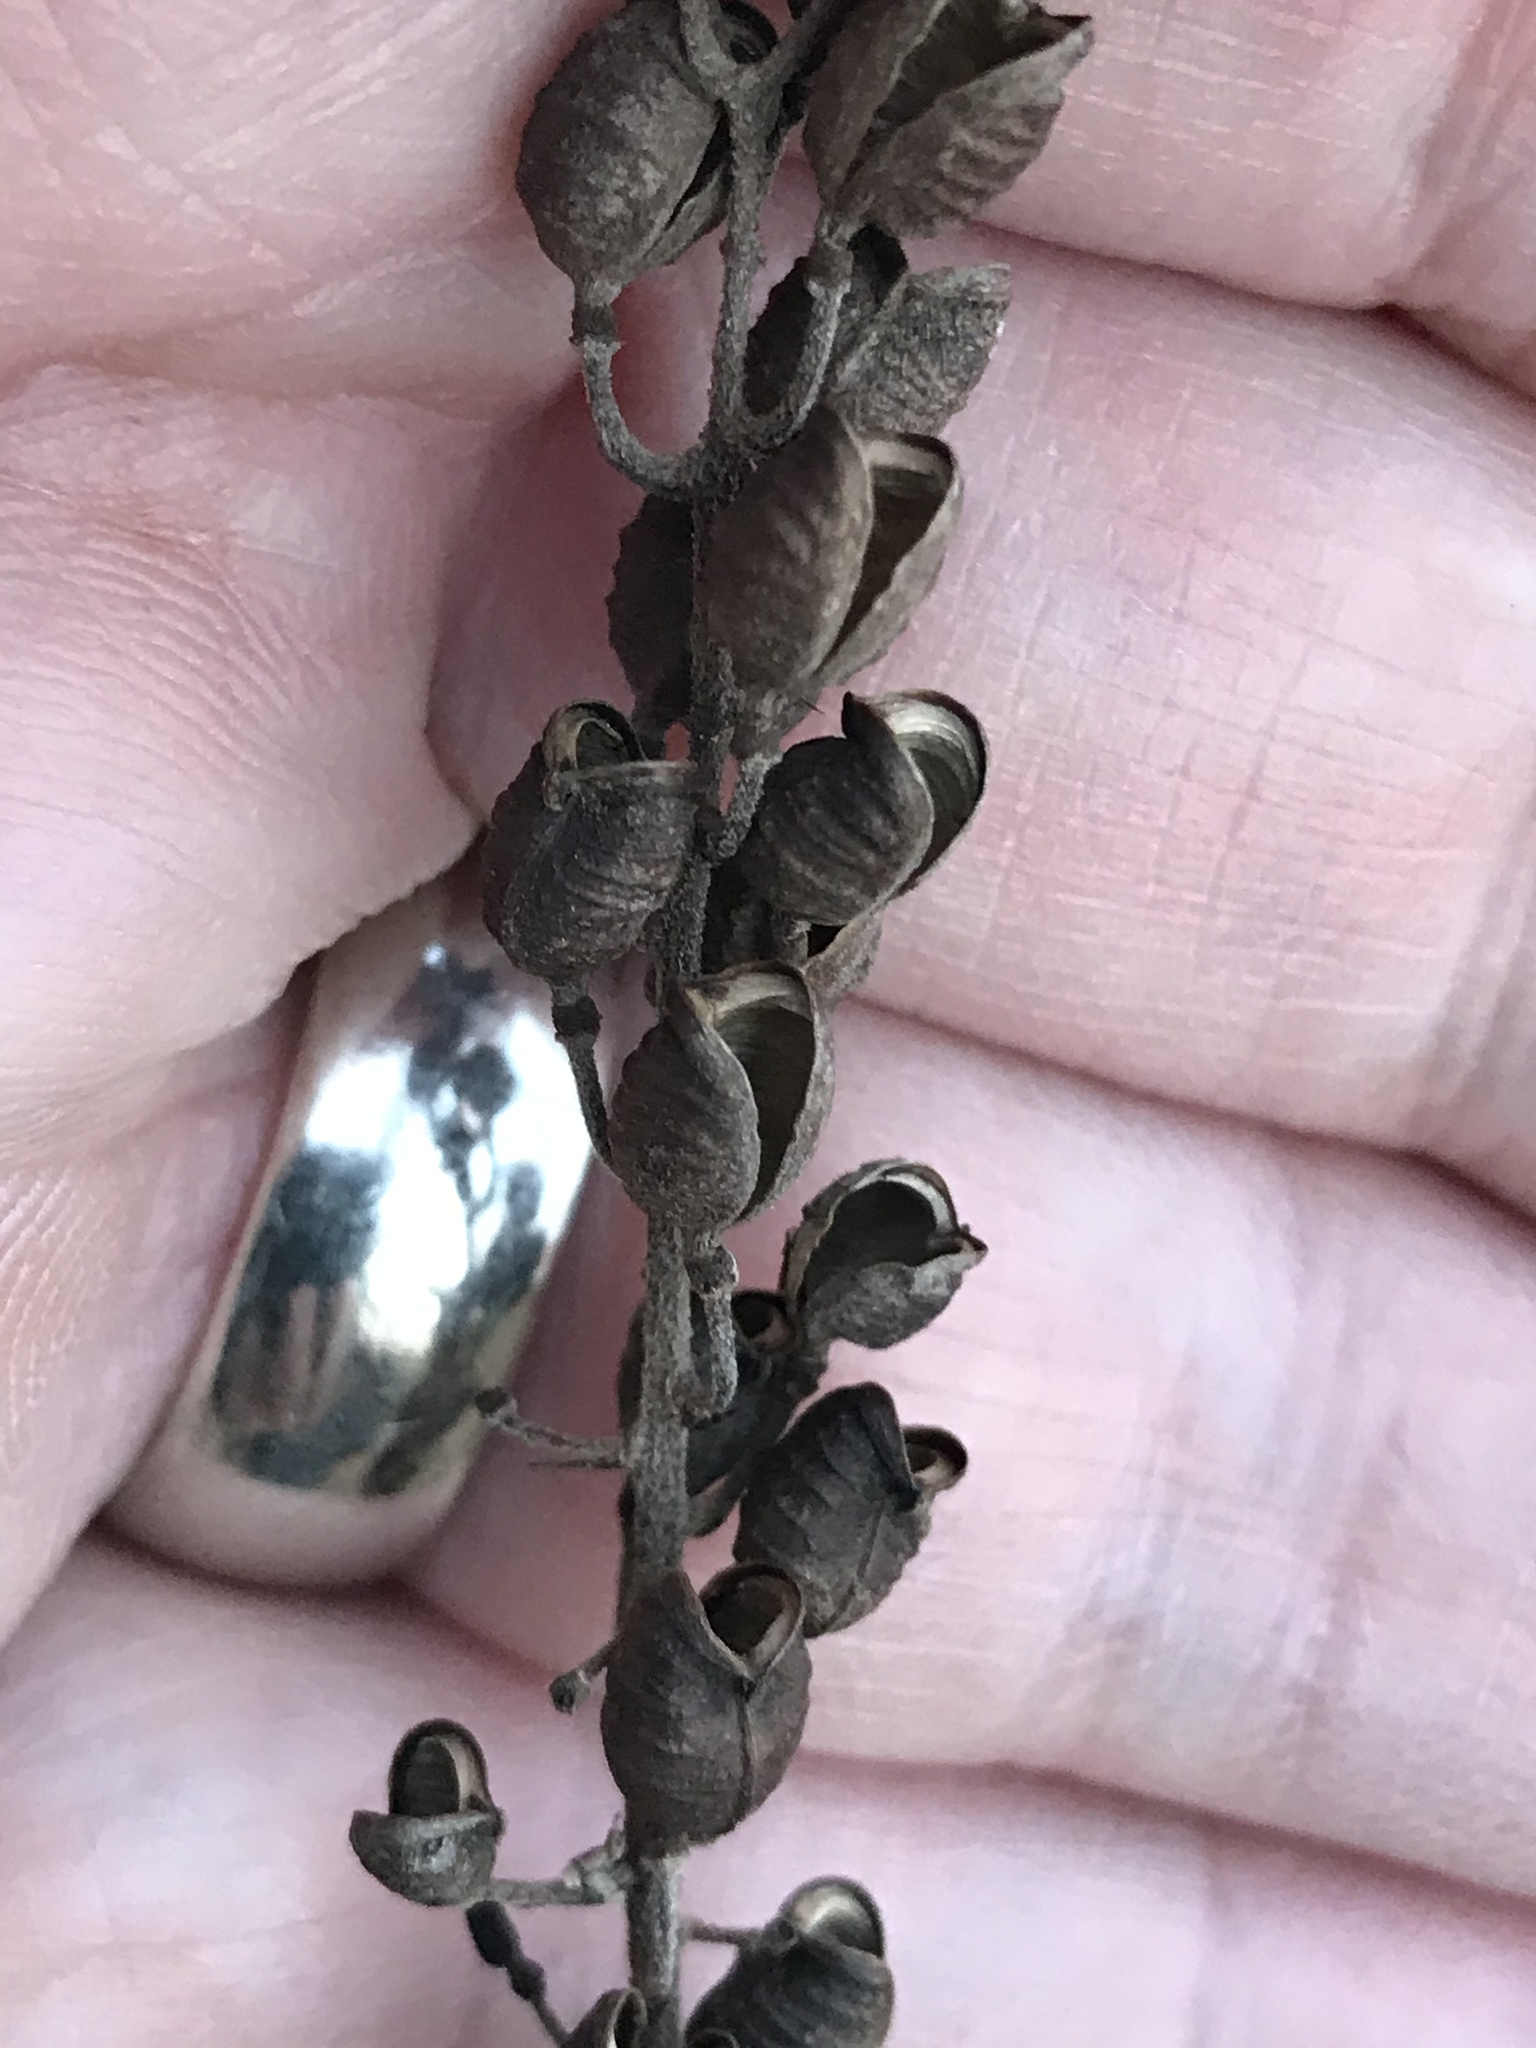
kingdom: Plantae
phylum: Tracheophyta
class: Magnoliopsida
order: Ranunculales
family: Ranunculaceae
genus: Actaea
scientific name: Actaea racemosa
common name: Black cohosh
